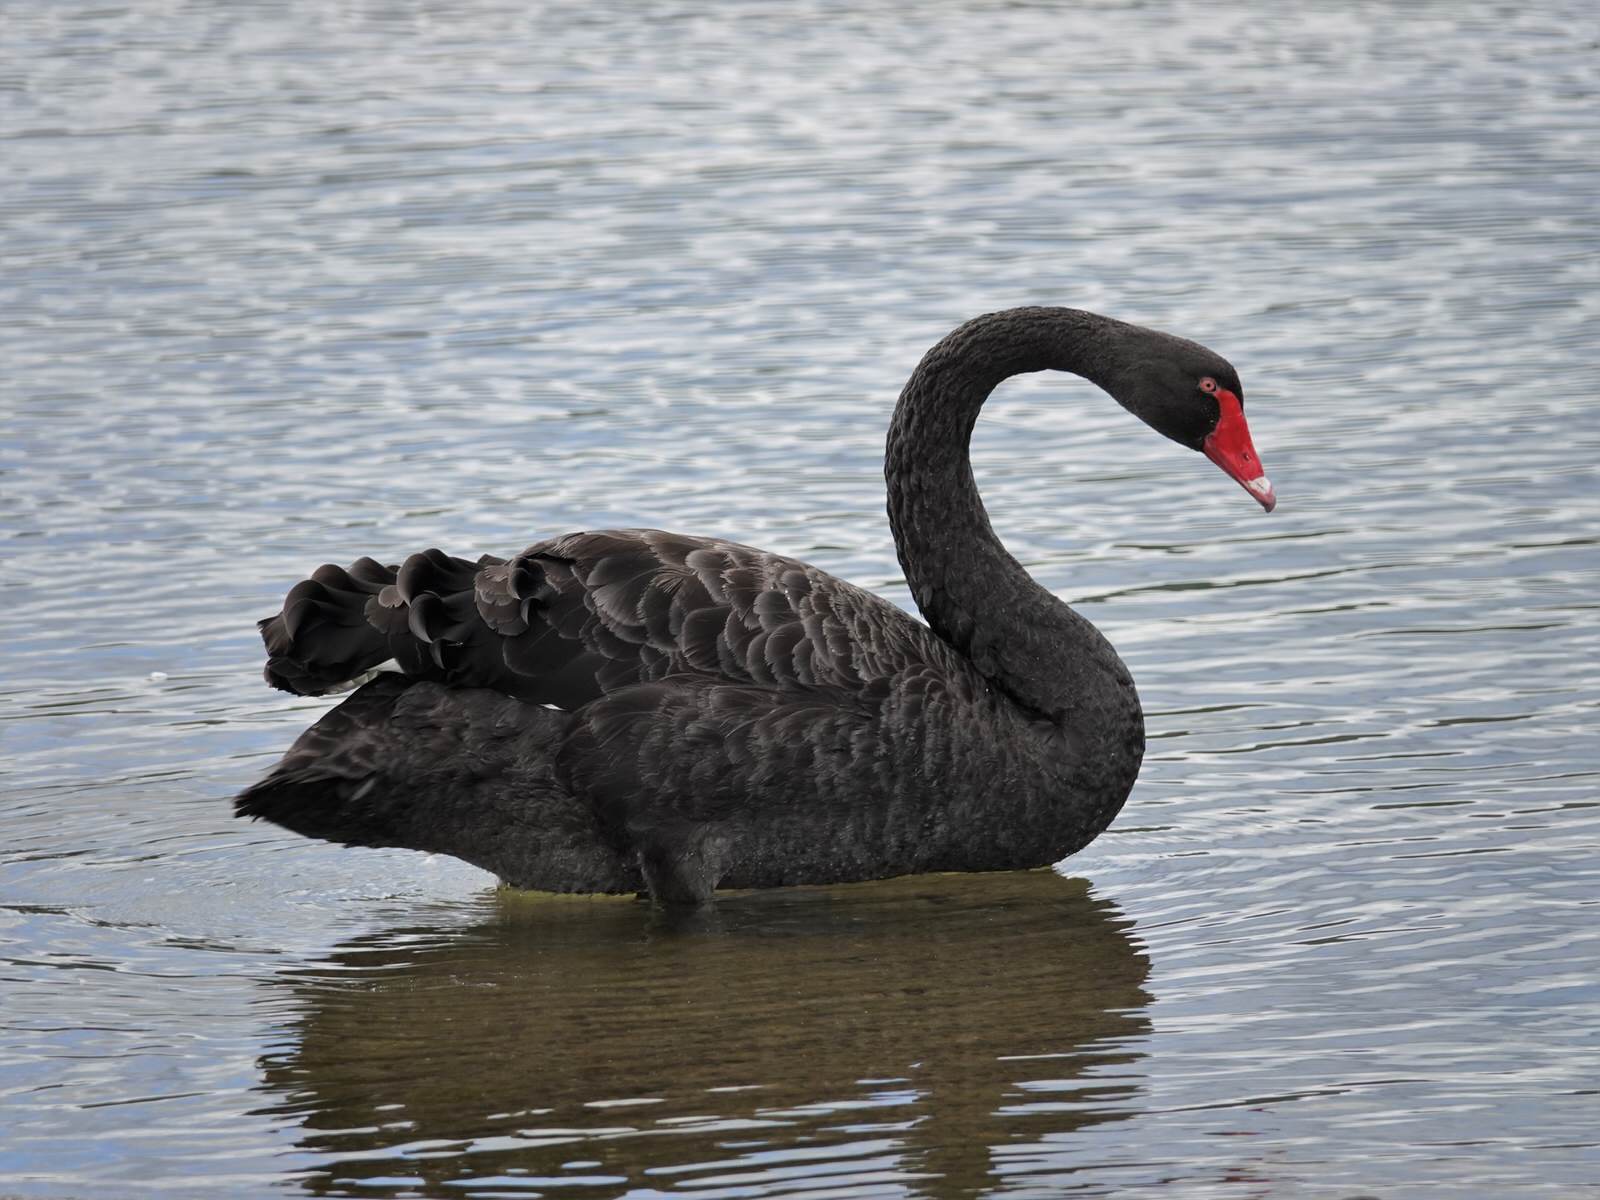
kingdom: Animalia
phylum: Chordata
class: Aves
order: Anseriformes
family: Anatidae
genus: Cygnus
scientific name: Cygnus atratus
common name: Black swan
